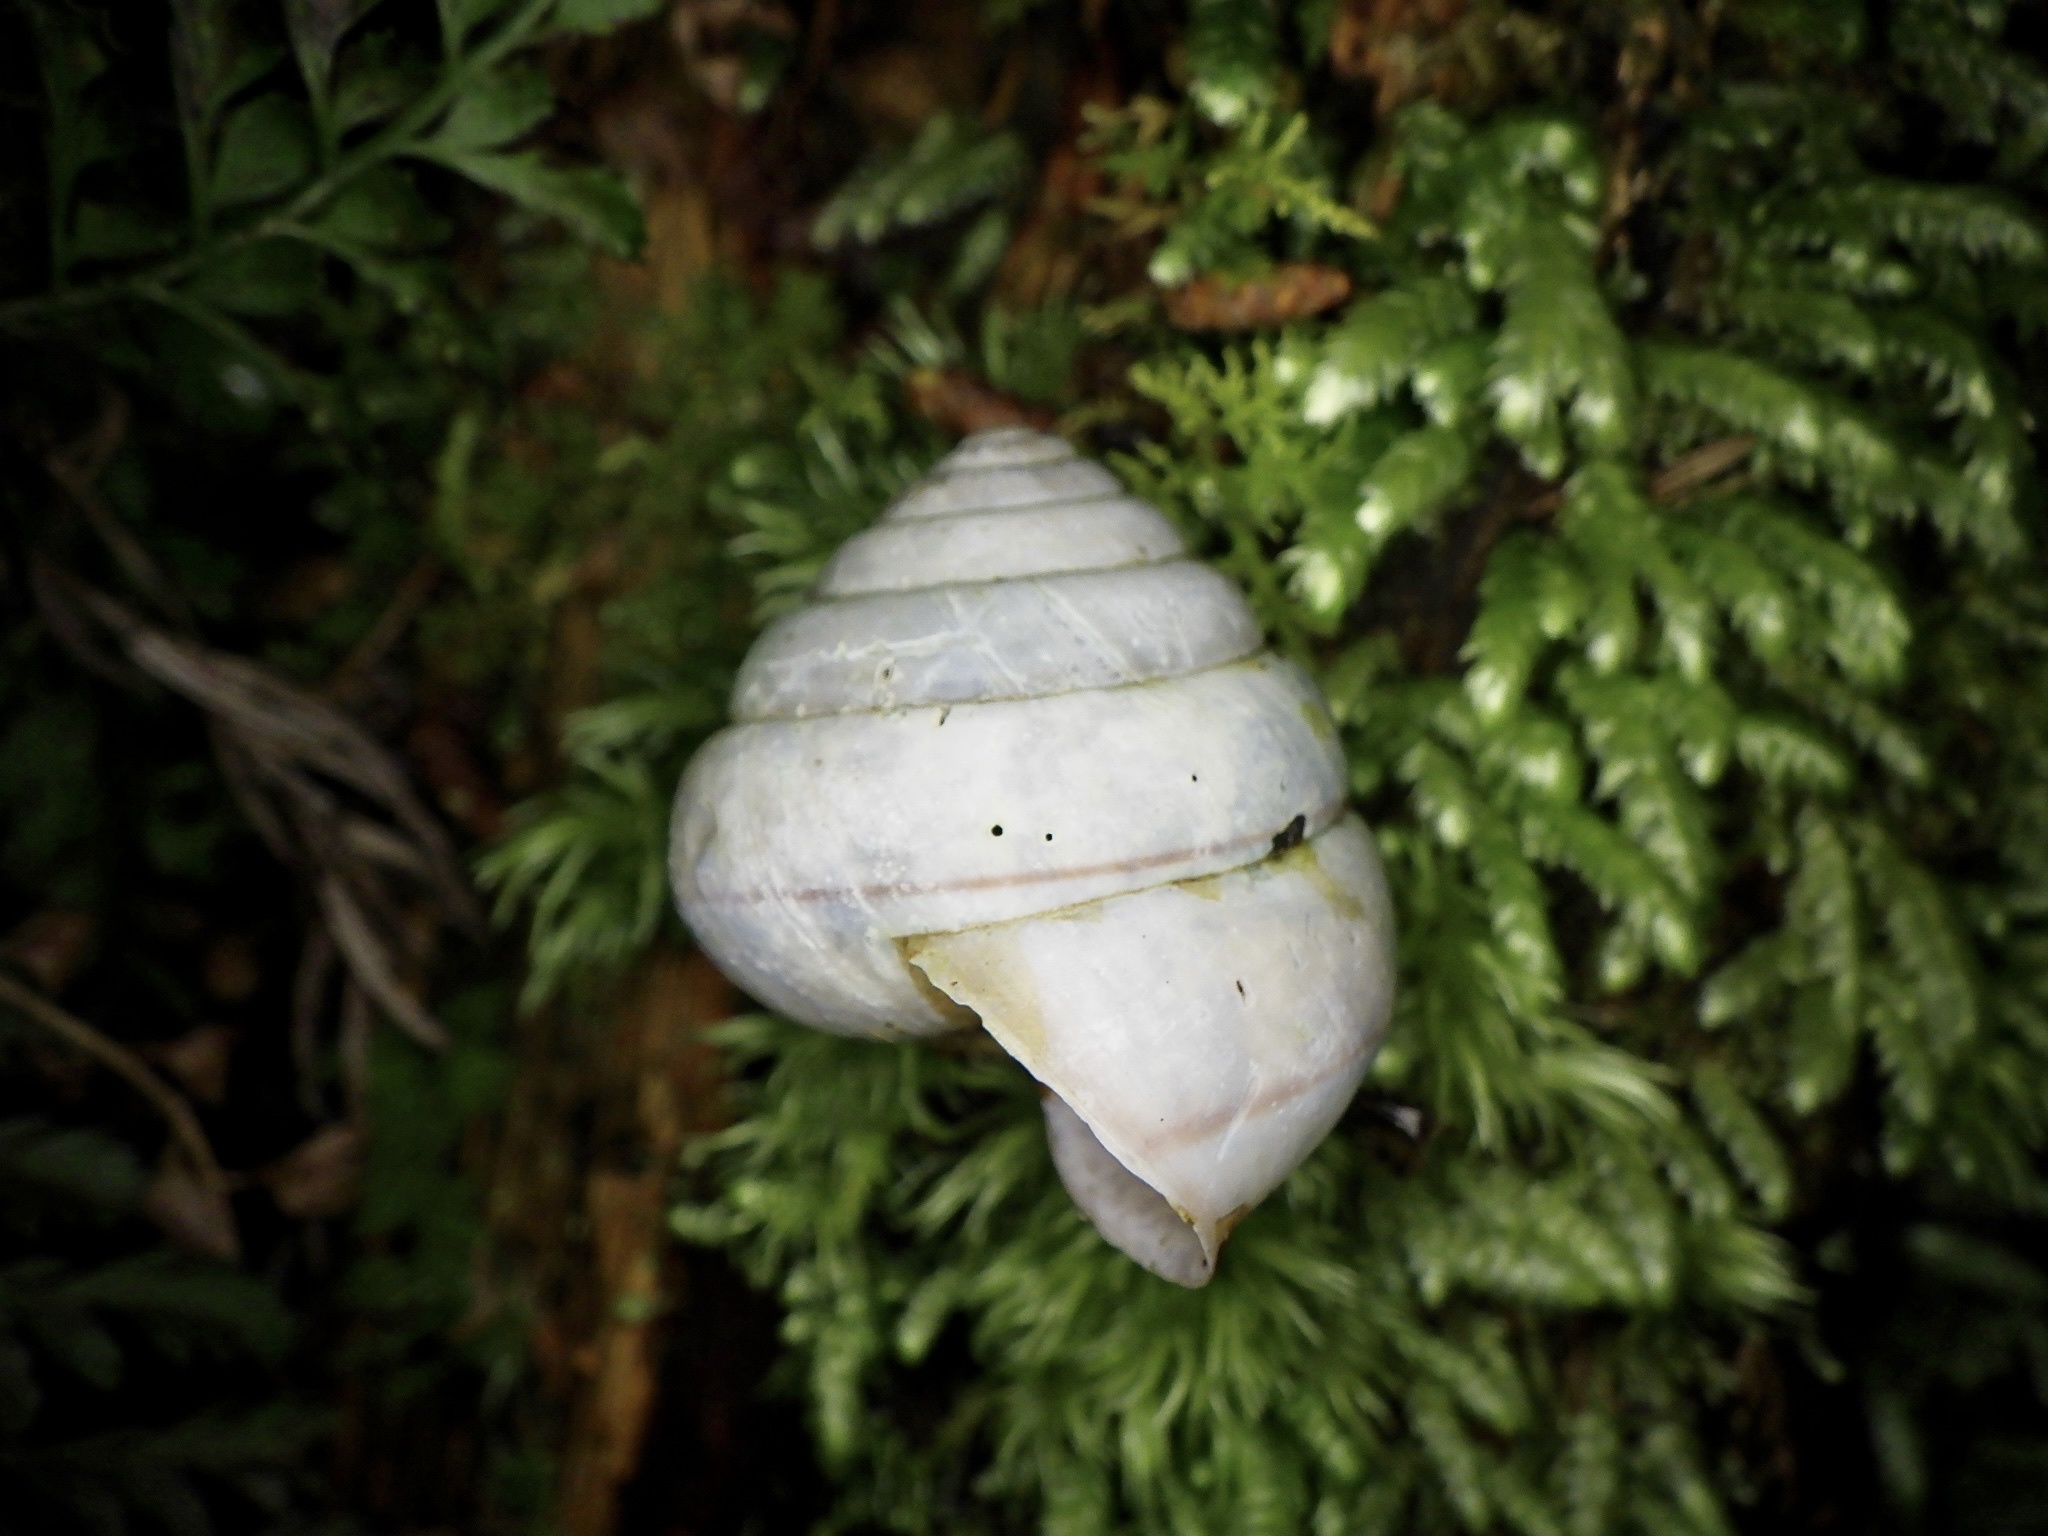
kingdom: Animalia
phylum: Mollusca
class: Gastropoda
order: Stylommatophora
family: Camaenidae
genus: Satsuma
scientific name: Satsuma papilliformis
